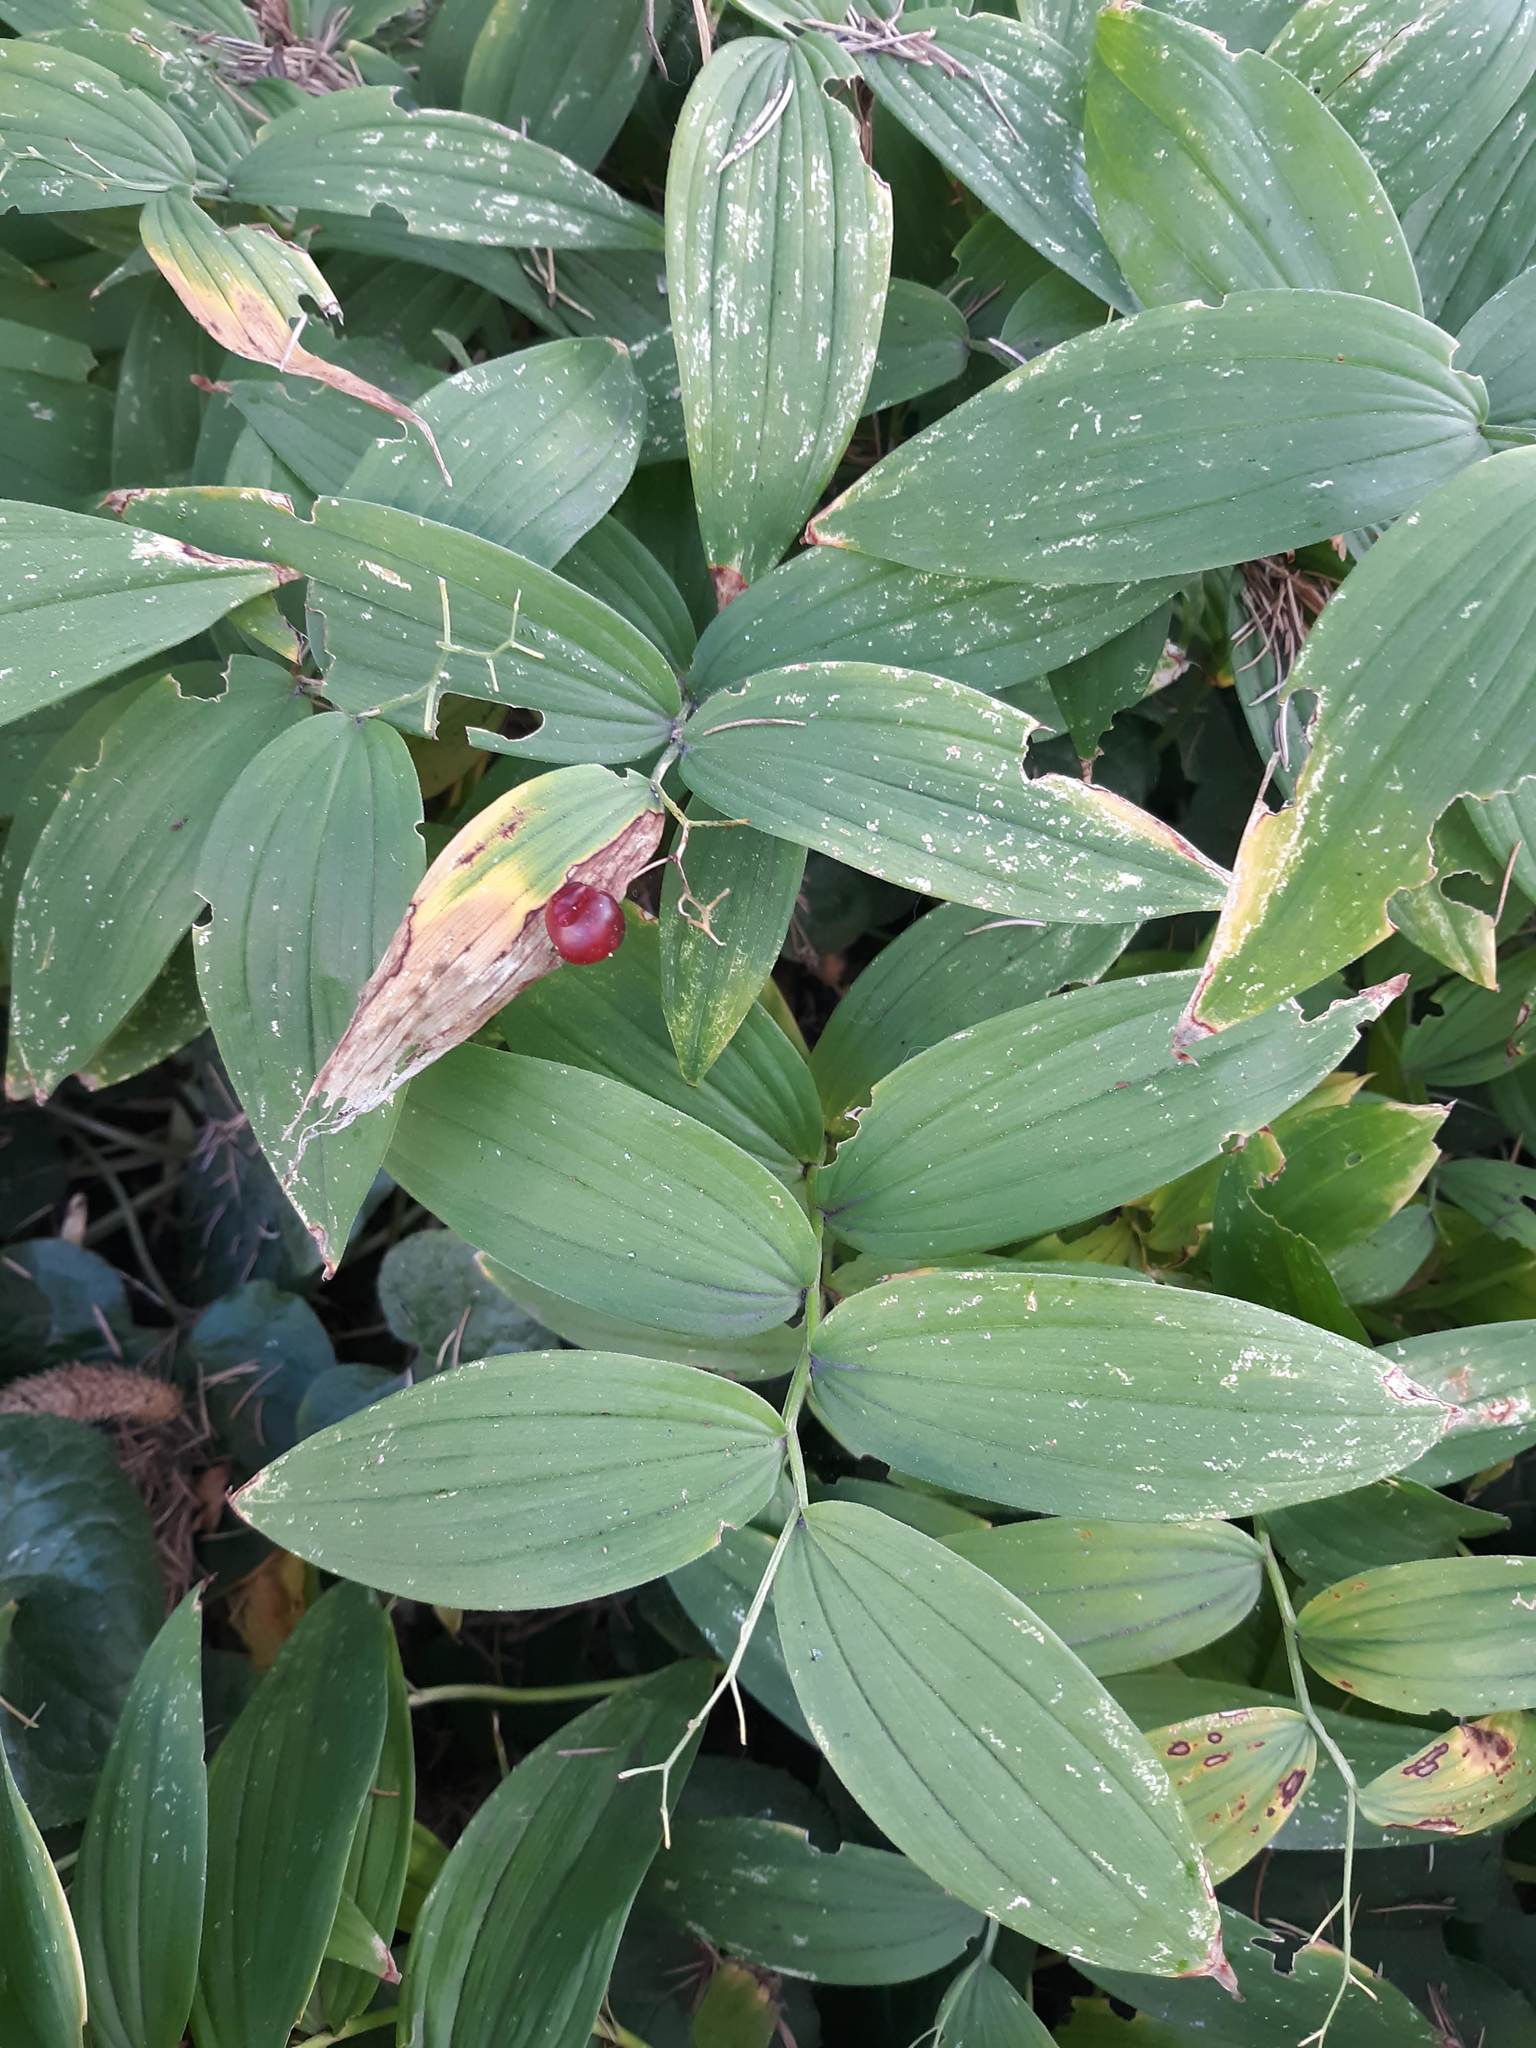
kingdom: Plantae
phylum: Tracheophyta
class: Liliopsida
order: Asparagales
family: Asparagaceae
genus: Maianthemum
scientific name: Maianthemum stellatum
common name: Little false solomon's seal
